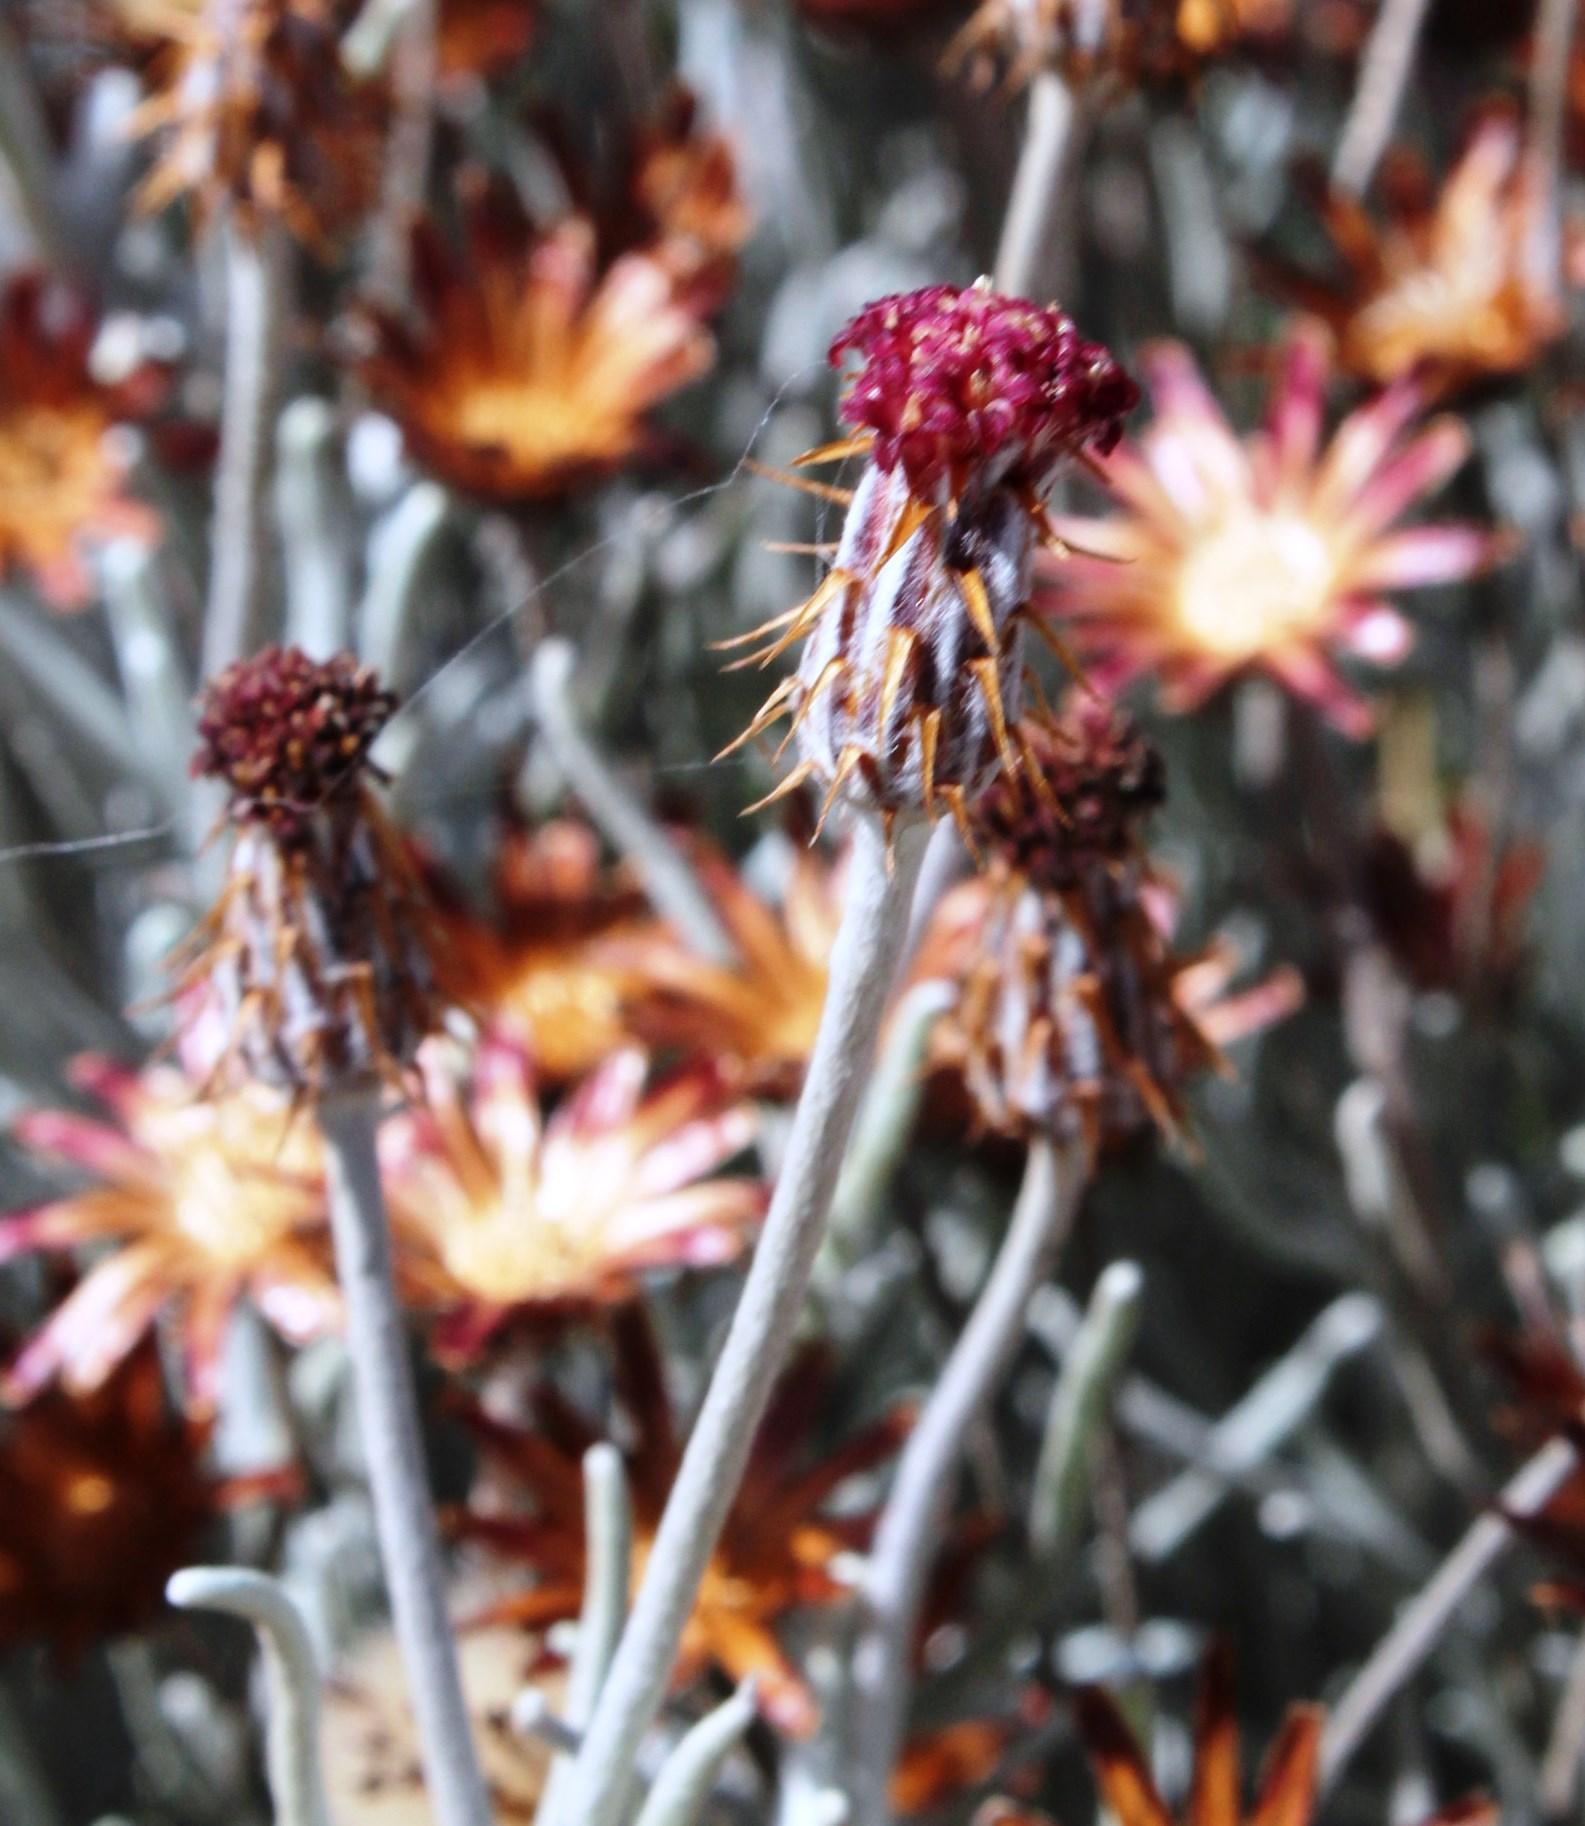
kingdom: Plantae
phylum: Tracheophyta
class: Magnoliopsida
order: Asterales
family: Asteraceae
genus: Syncarpha
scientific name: Syncarpha gnaphaloides
